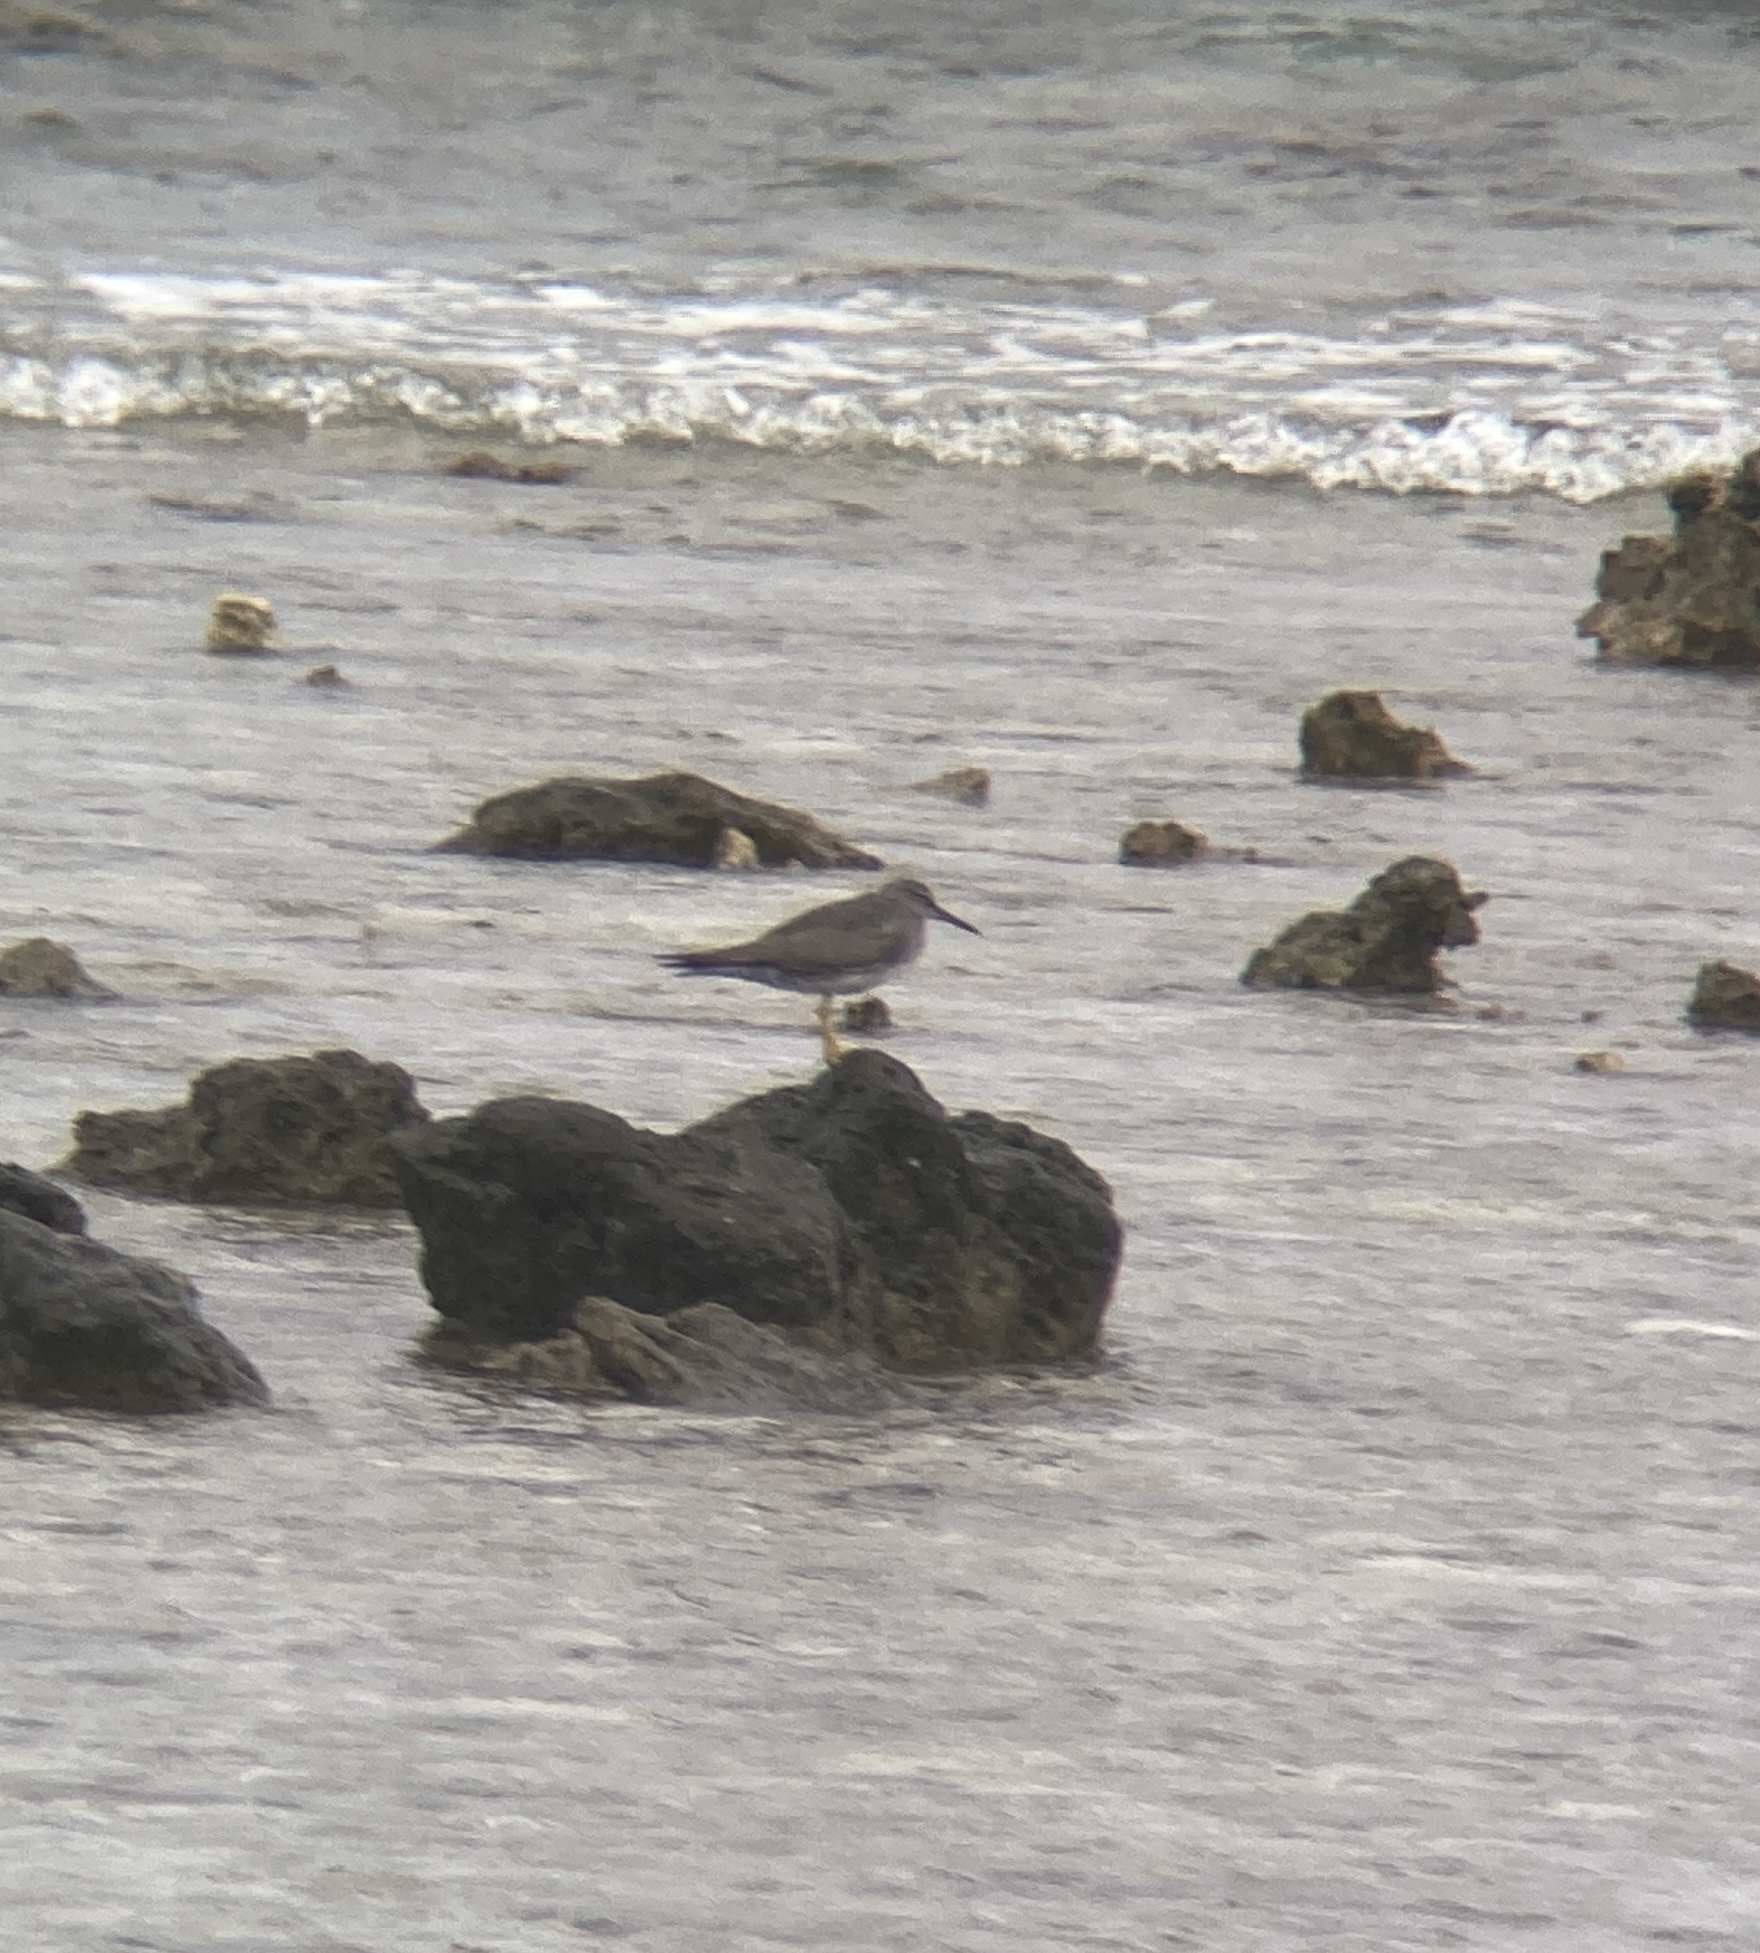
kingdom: Animalia
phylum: Chordata
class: Aves
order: Charadriiformes
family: Scolopacidae
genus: Tringa
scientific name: Tringa incana
